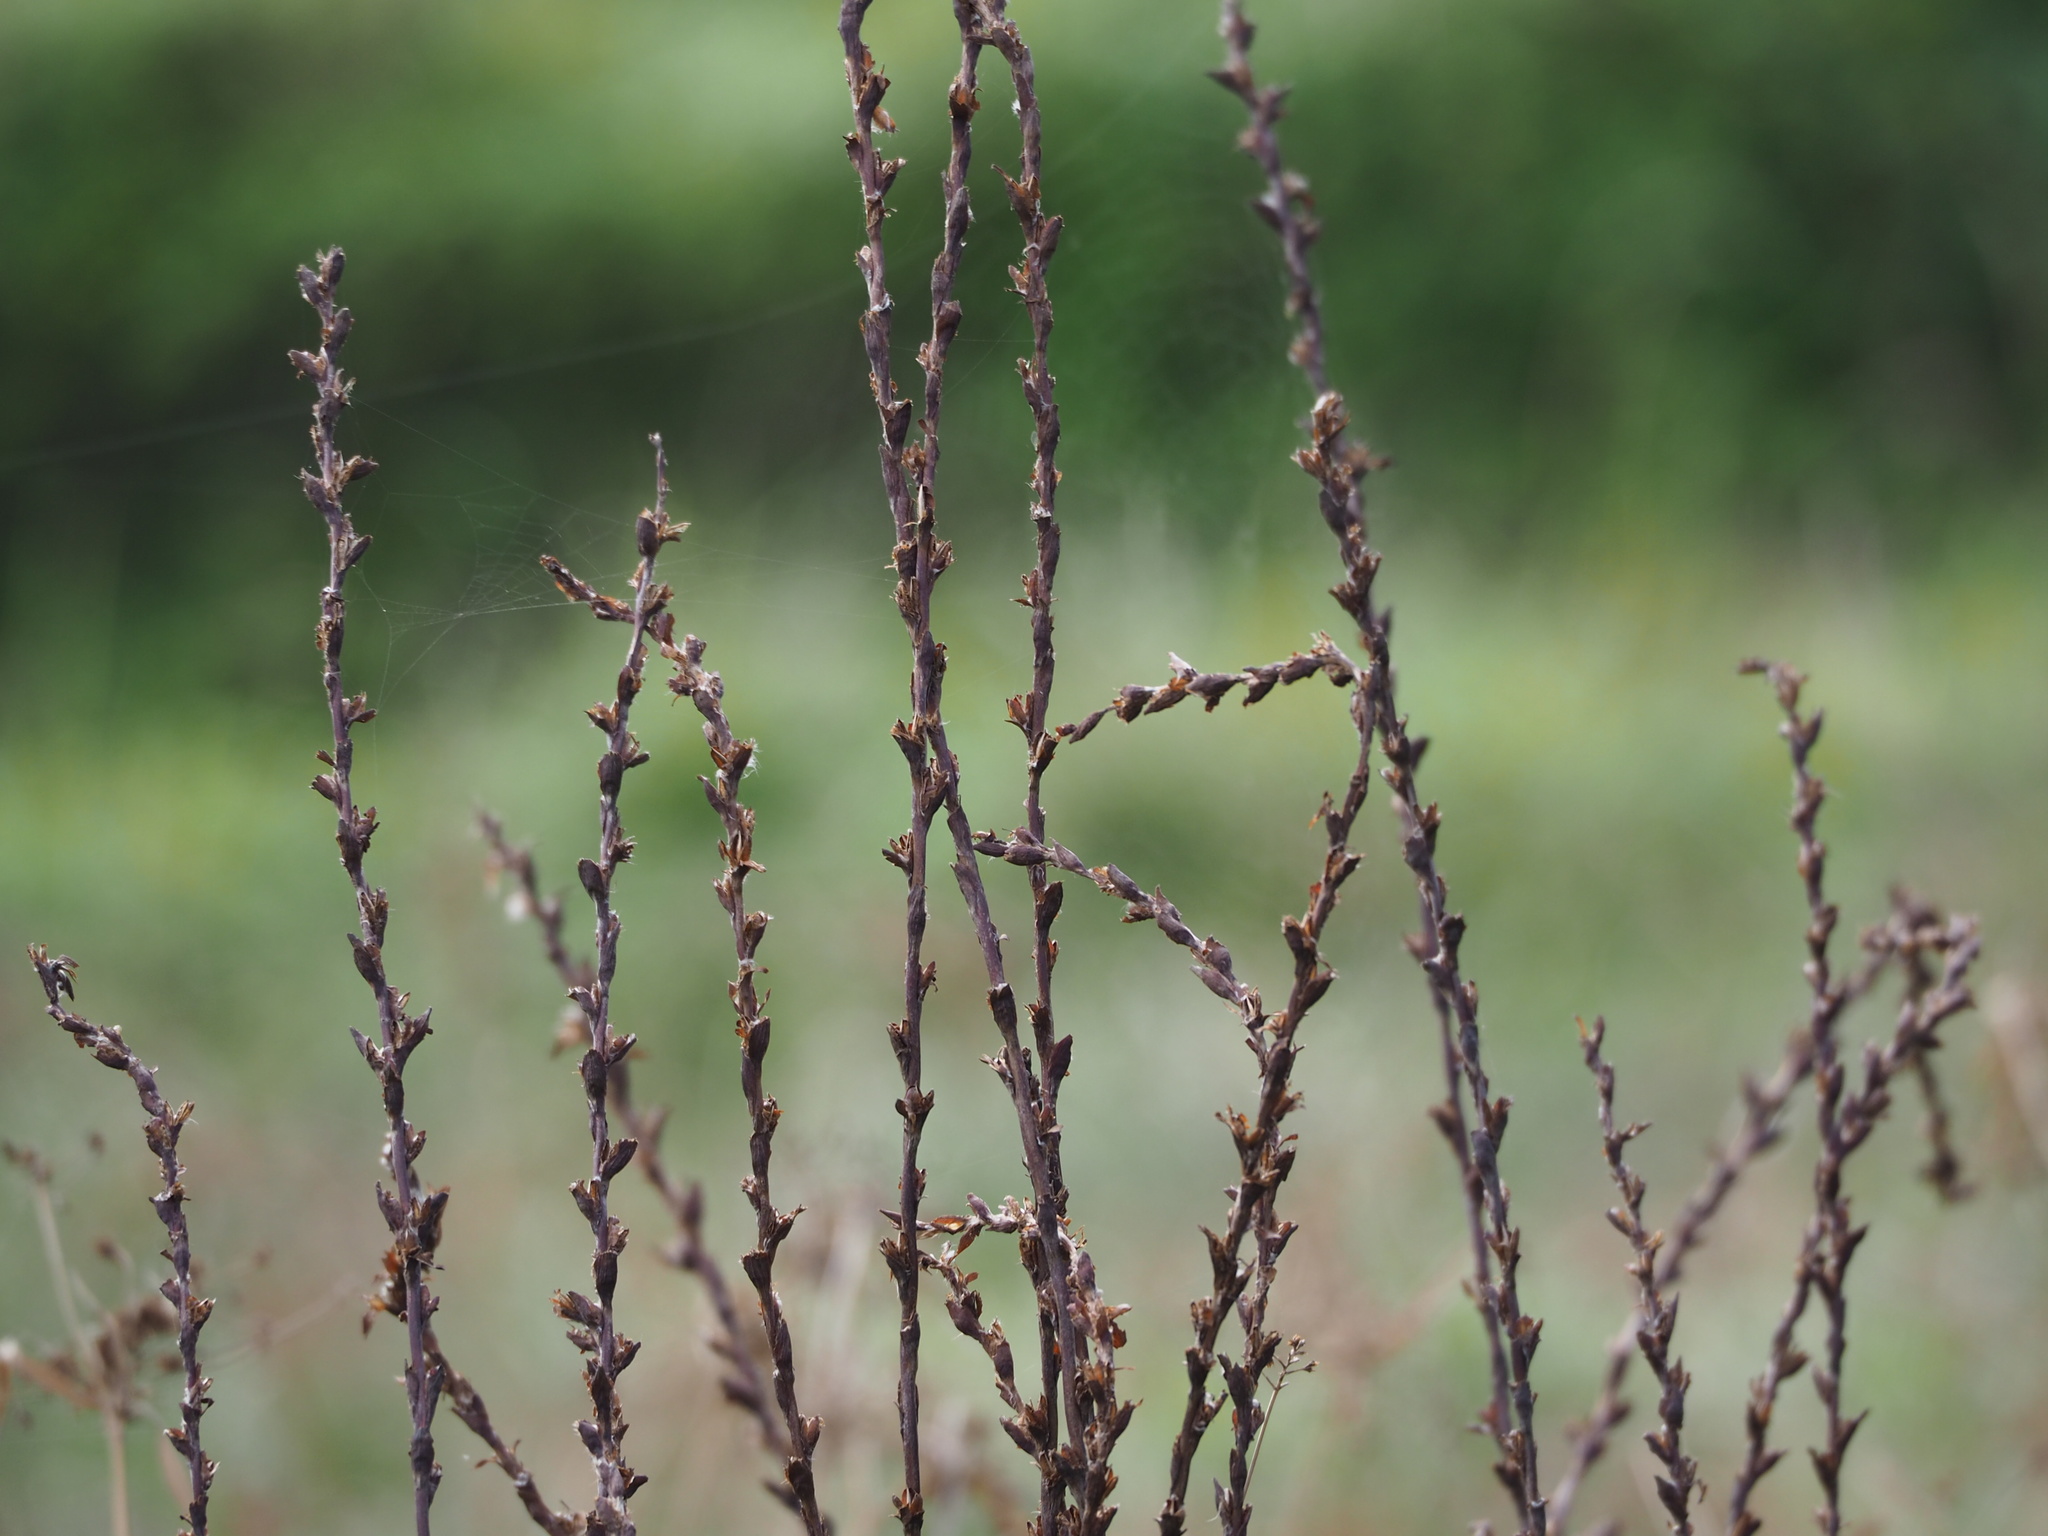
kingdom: Plantae
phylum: Tracheophyta
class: Liliopsida
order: Commelinales
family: Philydraceae
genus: Philydrum
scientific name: Philydrum lanuginosum
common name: Woolly frog's mouth
